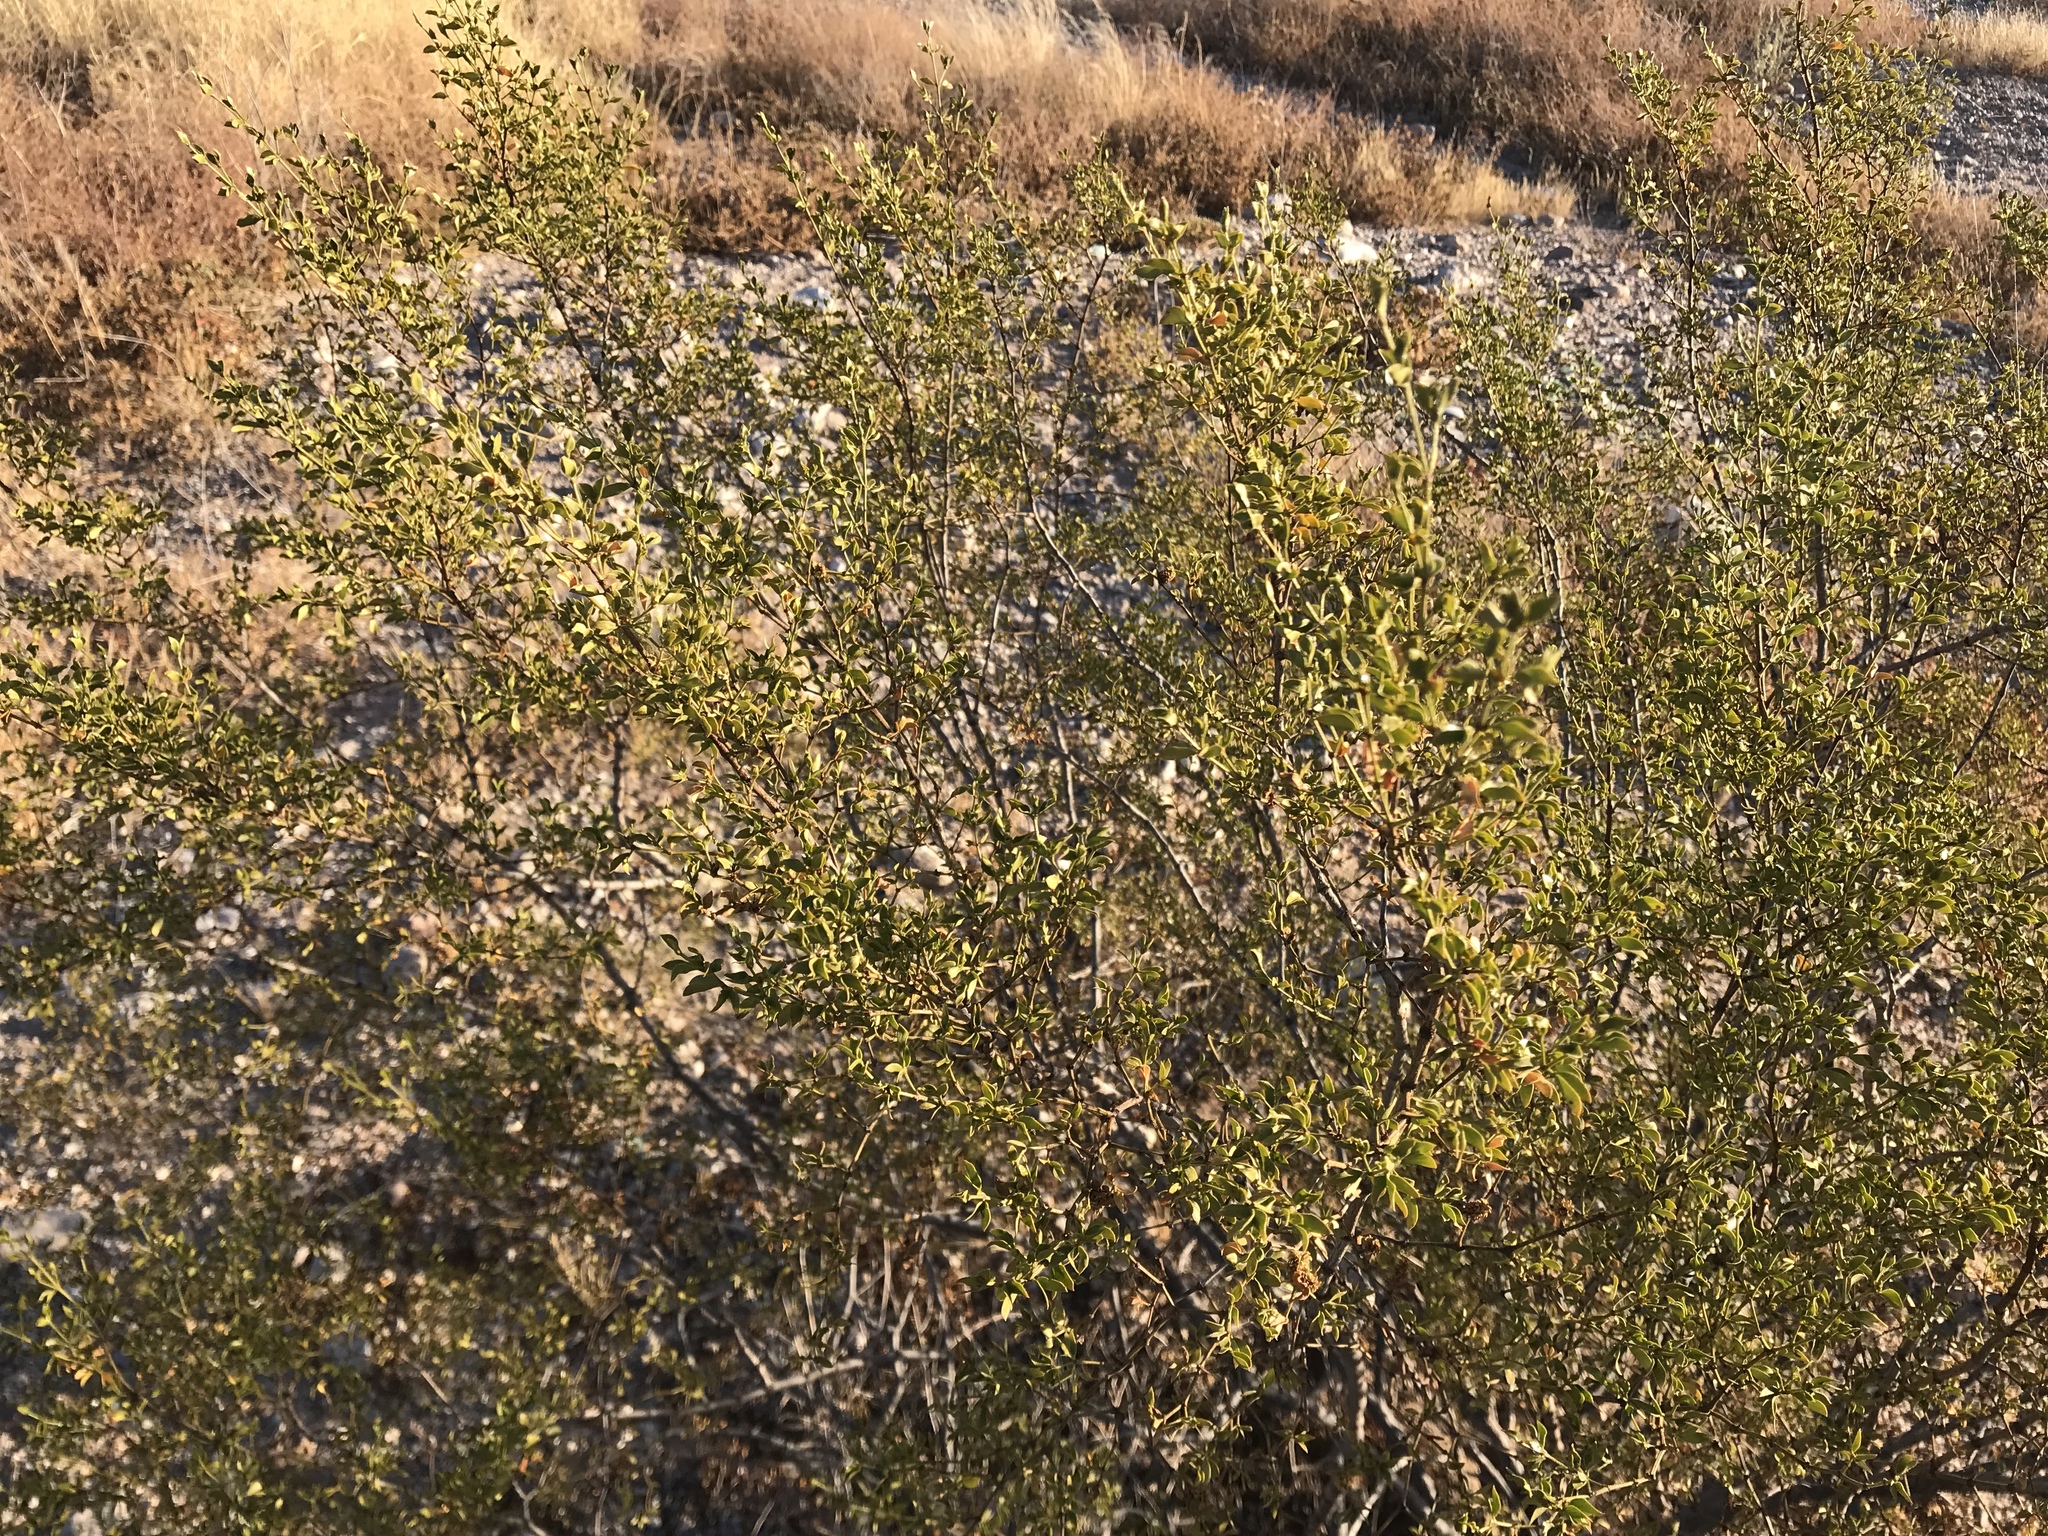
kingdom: Plantae
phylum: Tracheophyta
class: Magnoliopsida
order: Zygophyllales
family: Zygophyllaceae
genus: Larrea
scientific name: Larrea tridentata
